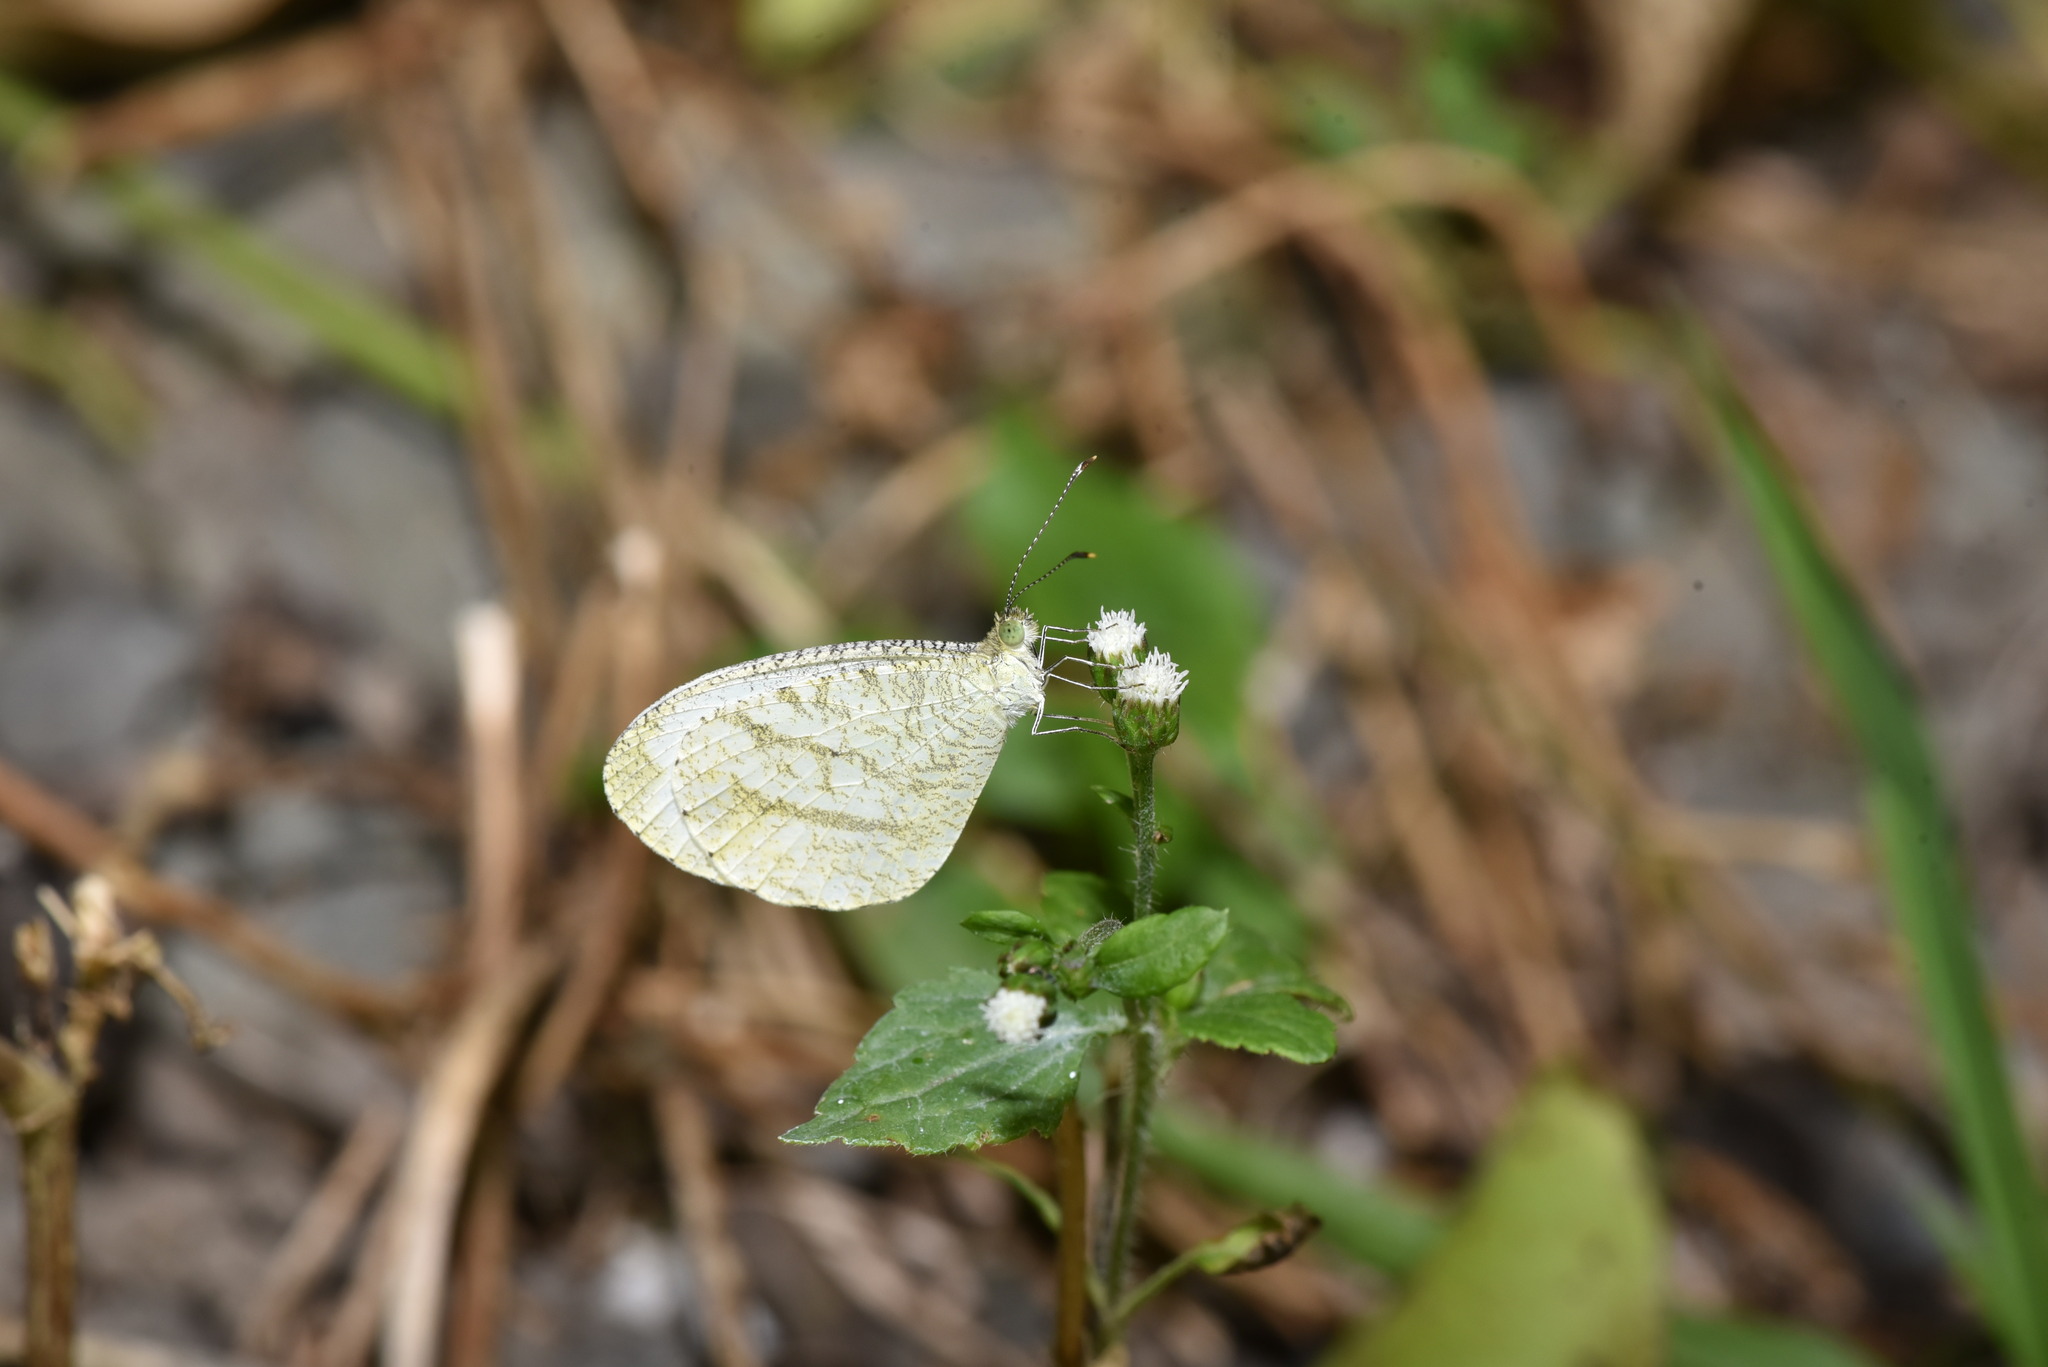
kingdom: Animalia
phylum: Arthropoda
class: Insecta
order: Lepidoptera
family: Pieridae
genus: Leptosia
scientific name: Leptosia nina
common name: Psyche
